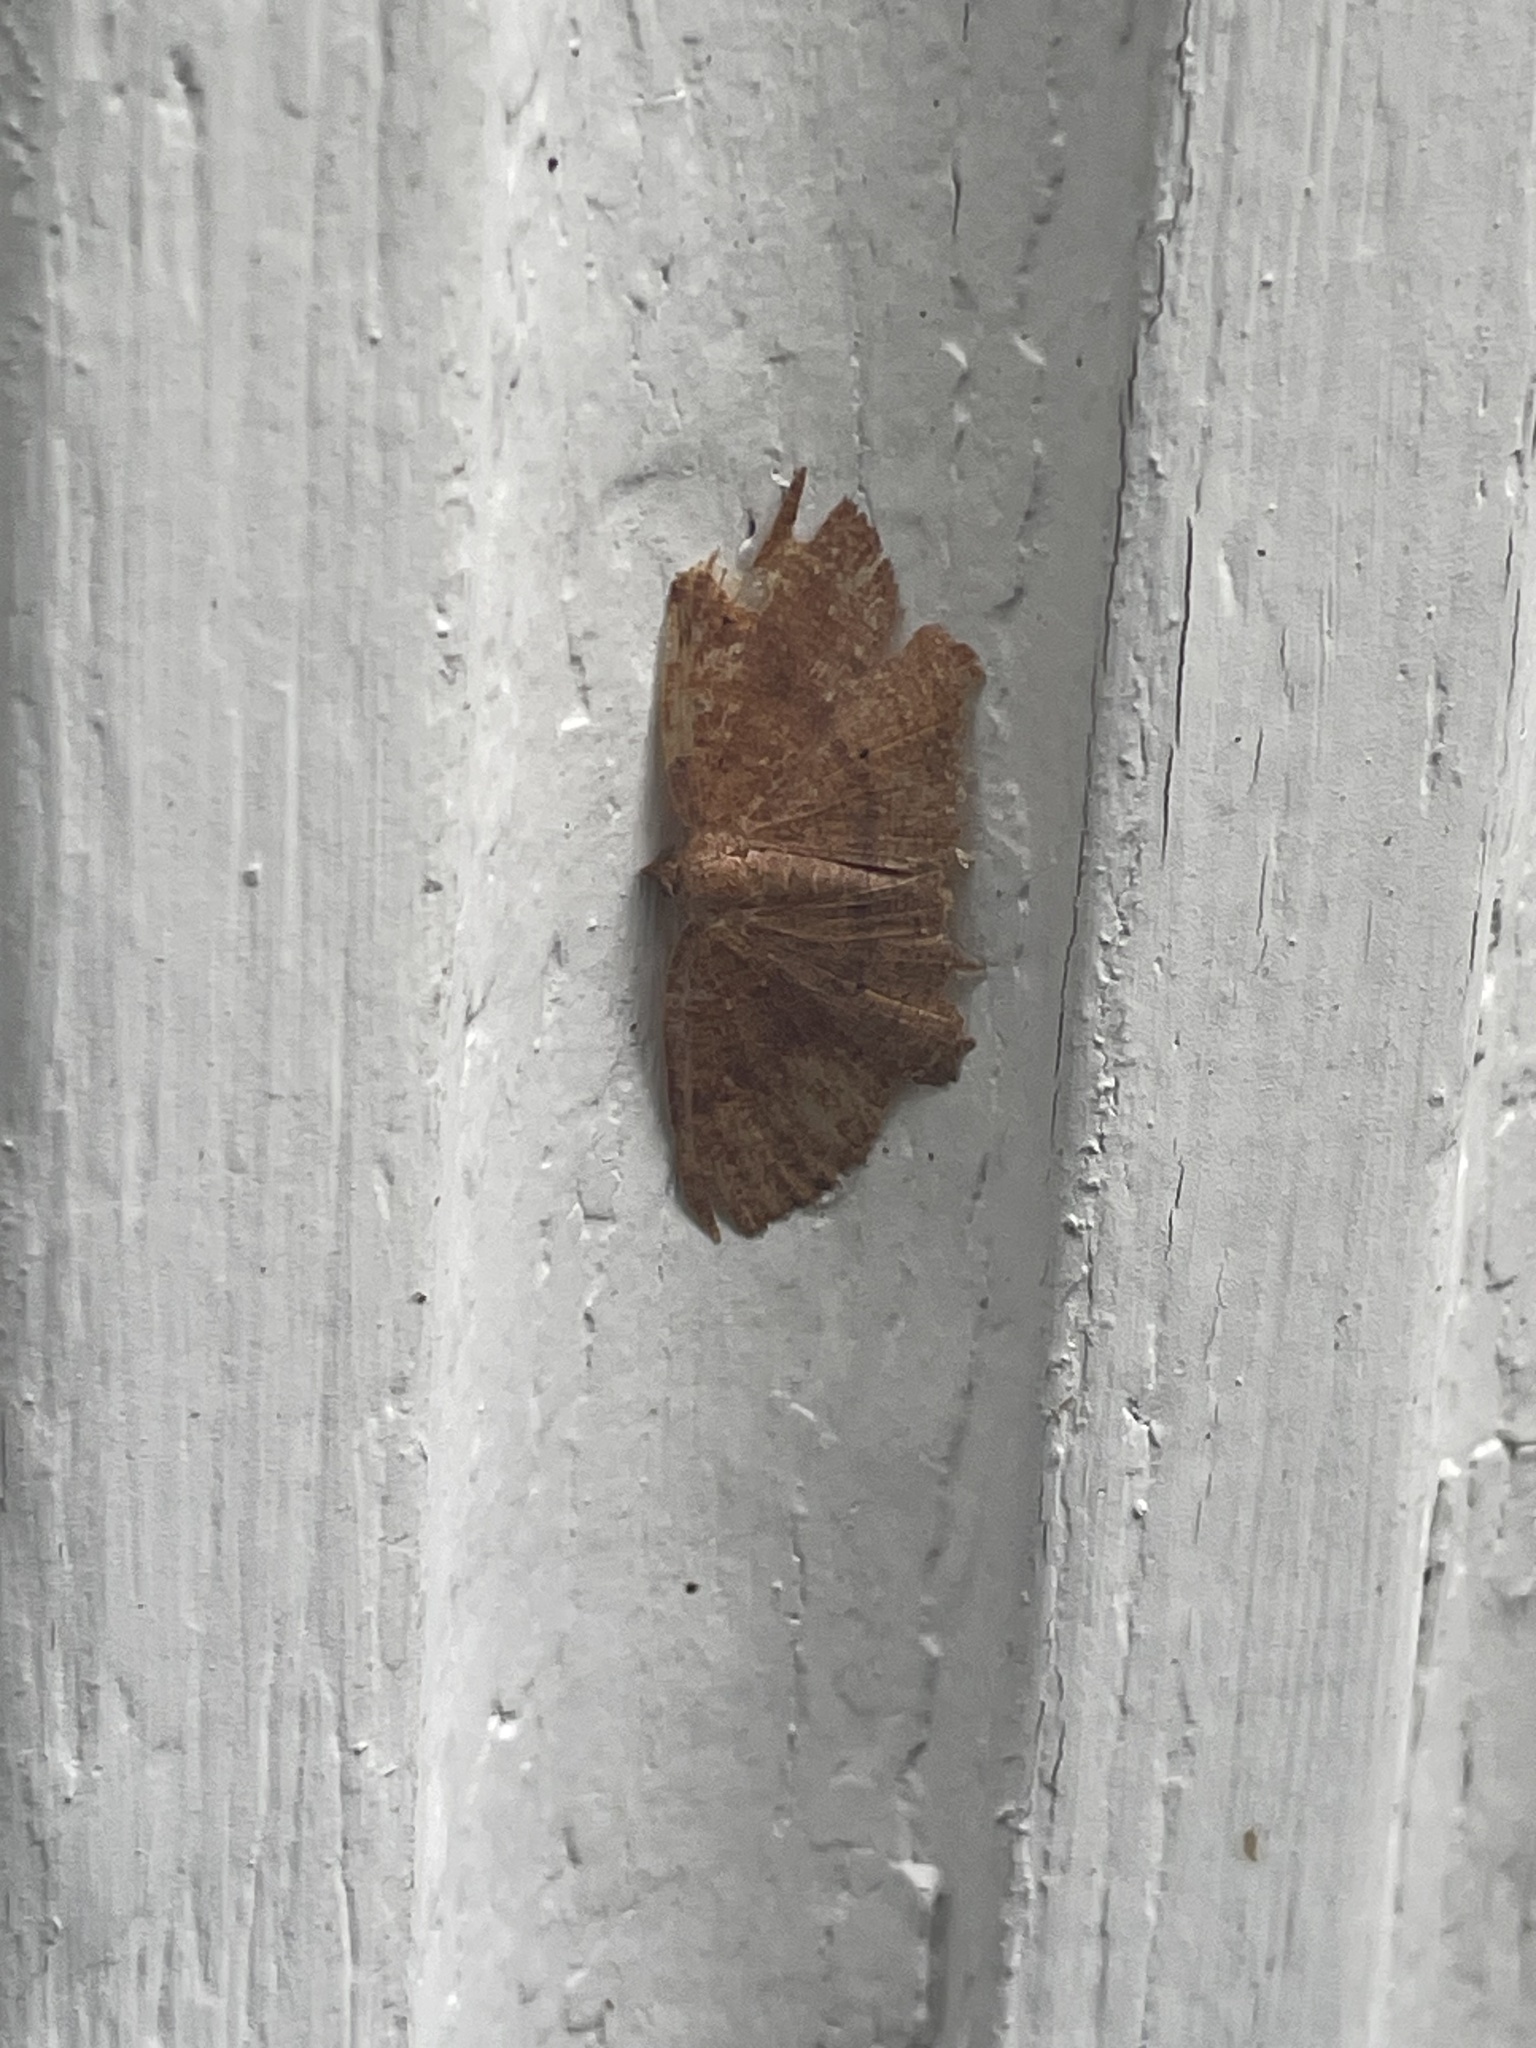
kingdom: Animalia
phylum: Arthropoda
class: Insecta
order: Lepidoptera
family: Geometridae
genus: Ilexia
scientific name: Ilexia intractata
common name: Black-dotted ruddy moth
